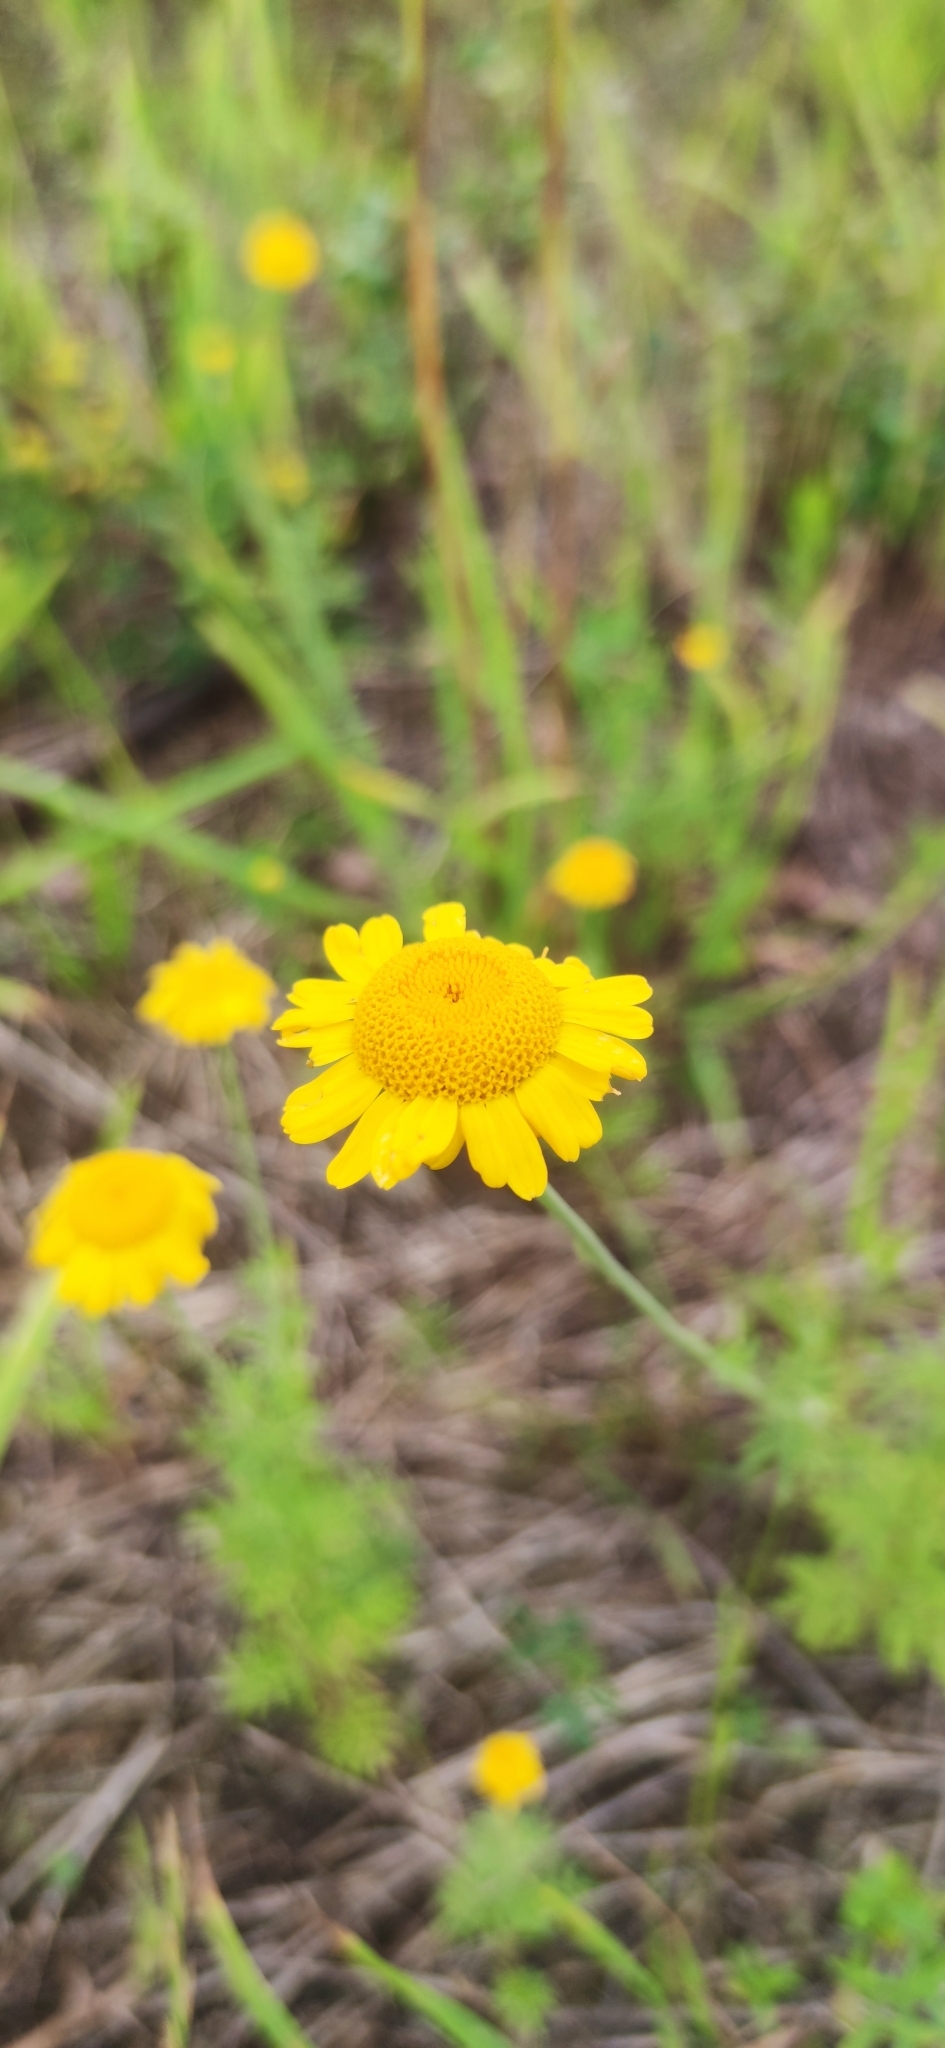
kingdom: Plantae
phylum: Tracheophyta
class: Magnoliopsida
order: Asterales
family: Asteraceae
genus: Cota
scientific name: Cota tinctoria
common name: Golden chamomile
